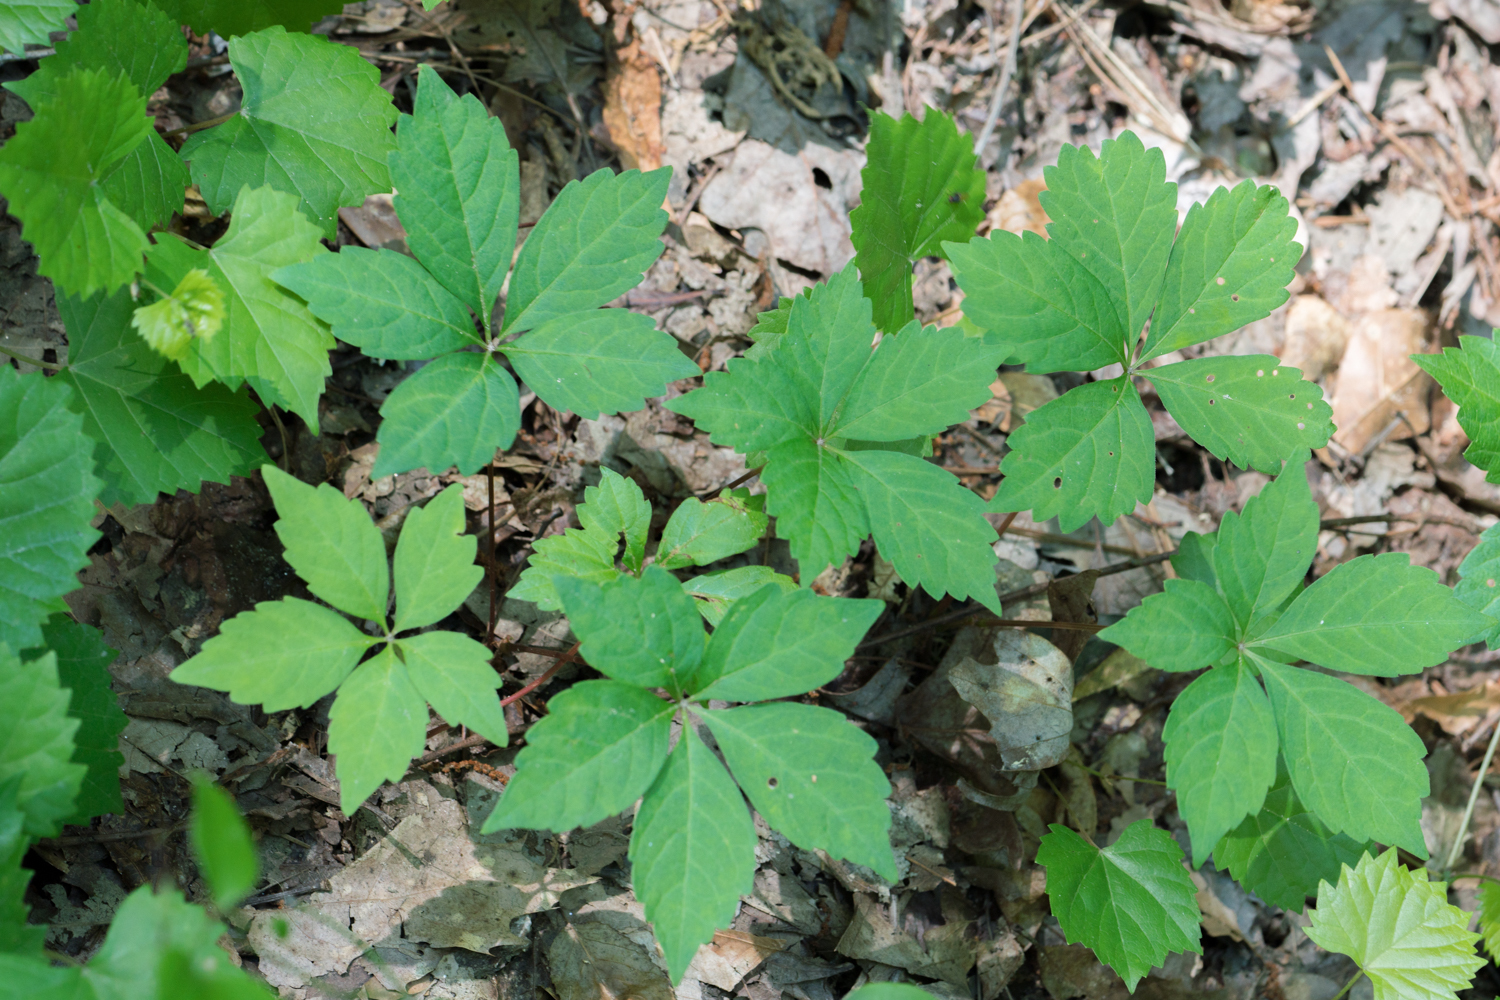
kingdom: Plantae
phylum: Tracheophyta
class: Magnoliopsida
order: Vitales
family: Vitaceae
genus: Parthenocissus
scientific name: Parthenocissus quinquefolia
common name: Virginia-creeper
